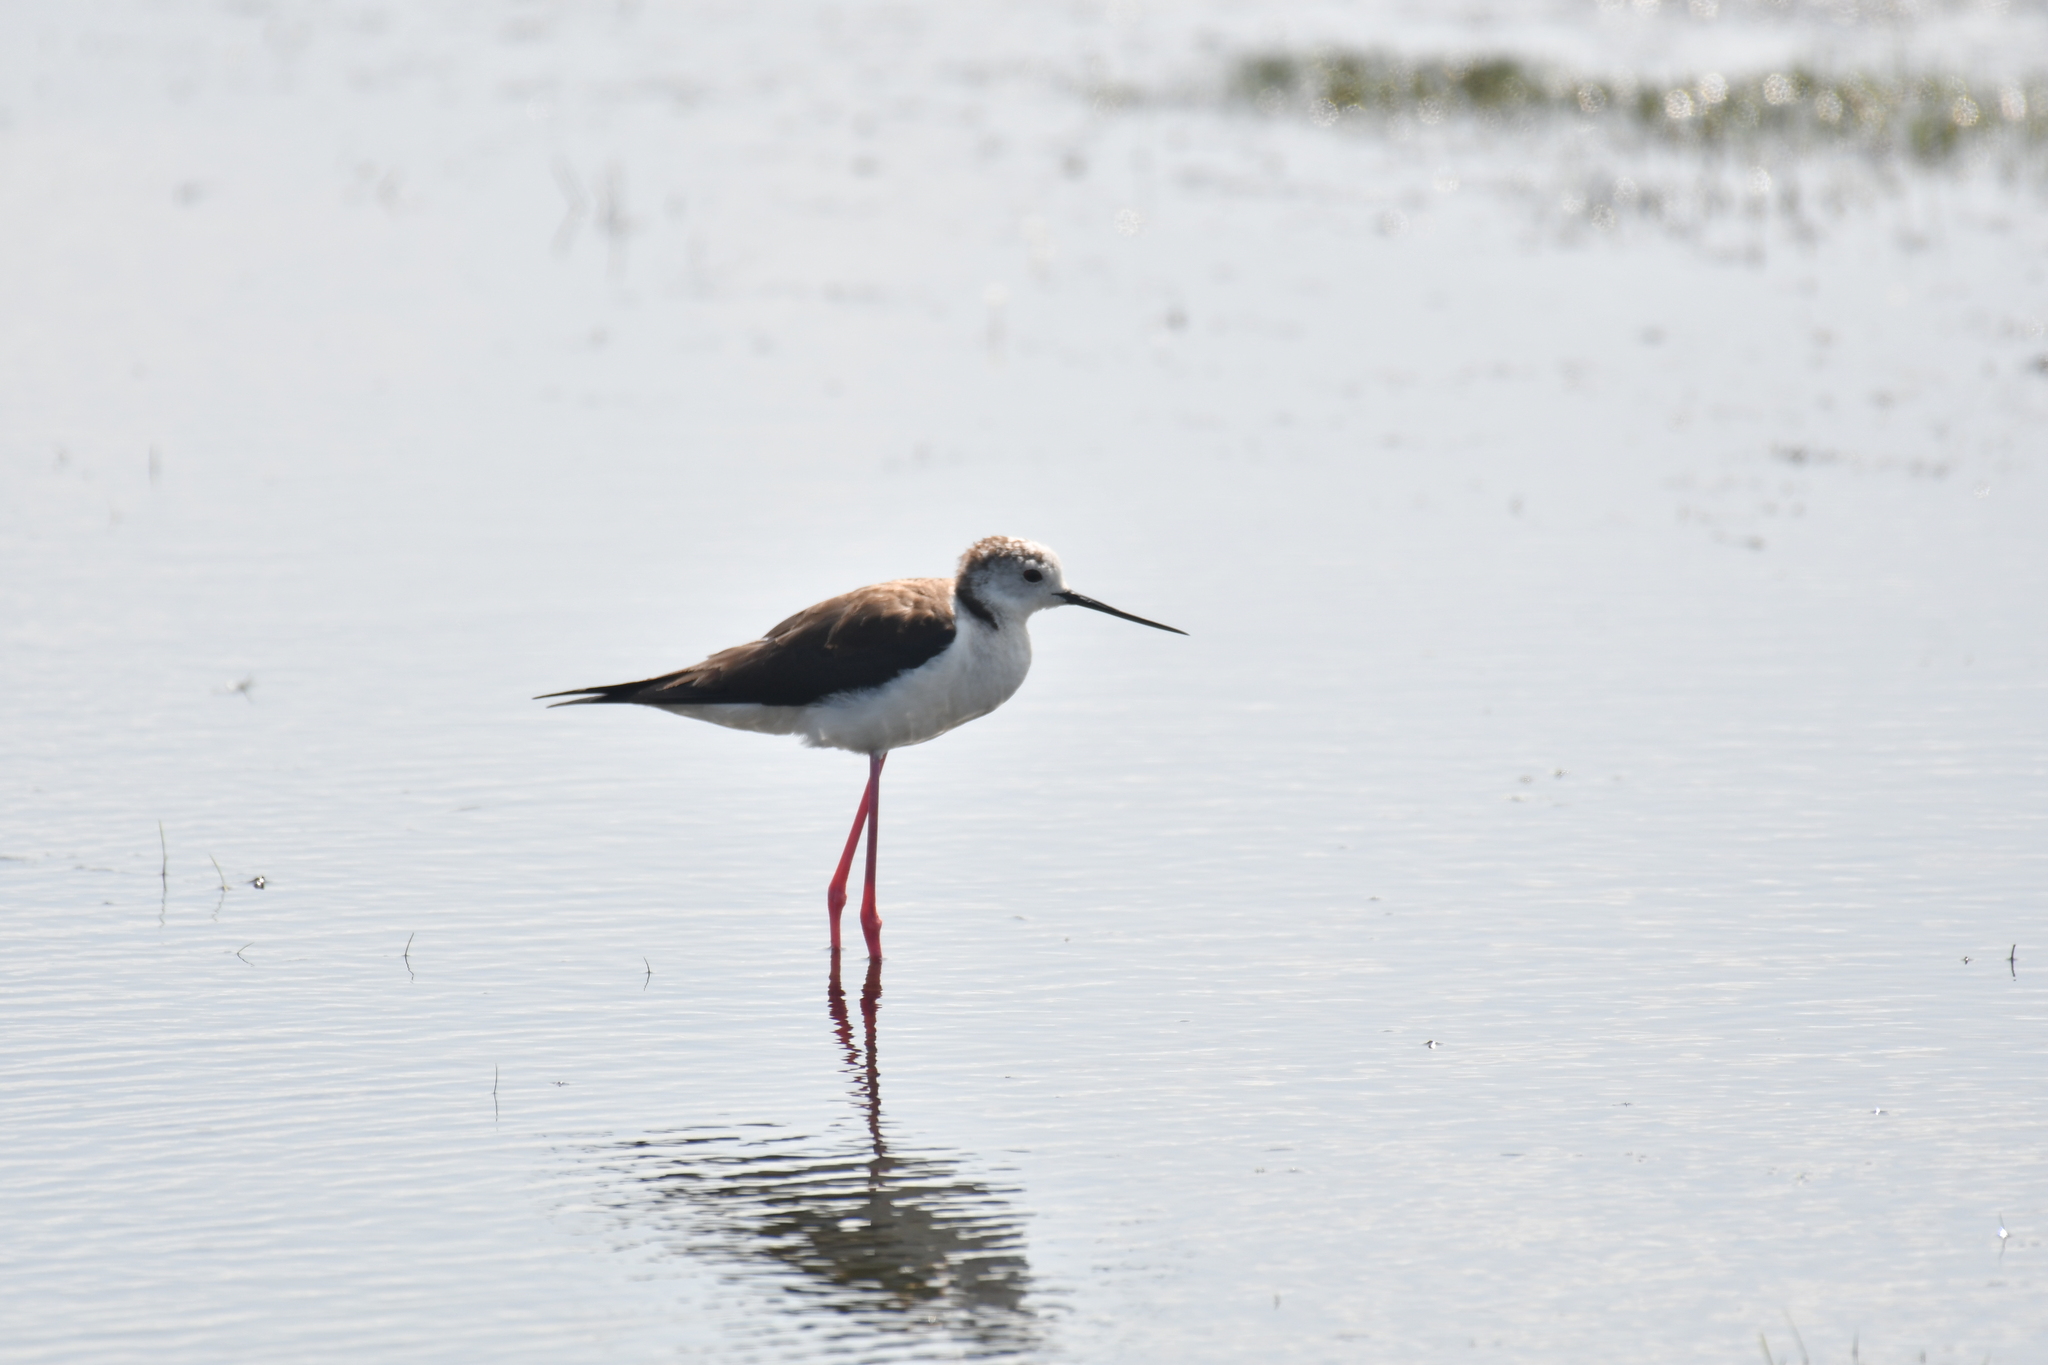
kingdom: Animalia
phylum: Chordata
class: Aves
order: Charadriiformes
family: Recurvirostridae
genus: Himantopus
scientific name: Himantopus himantopus
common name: Black-winged stilt
